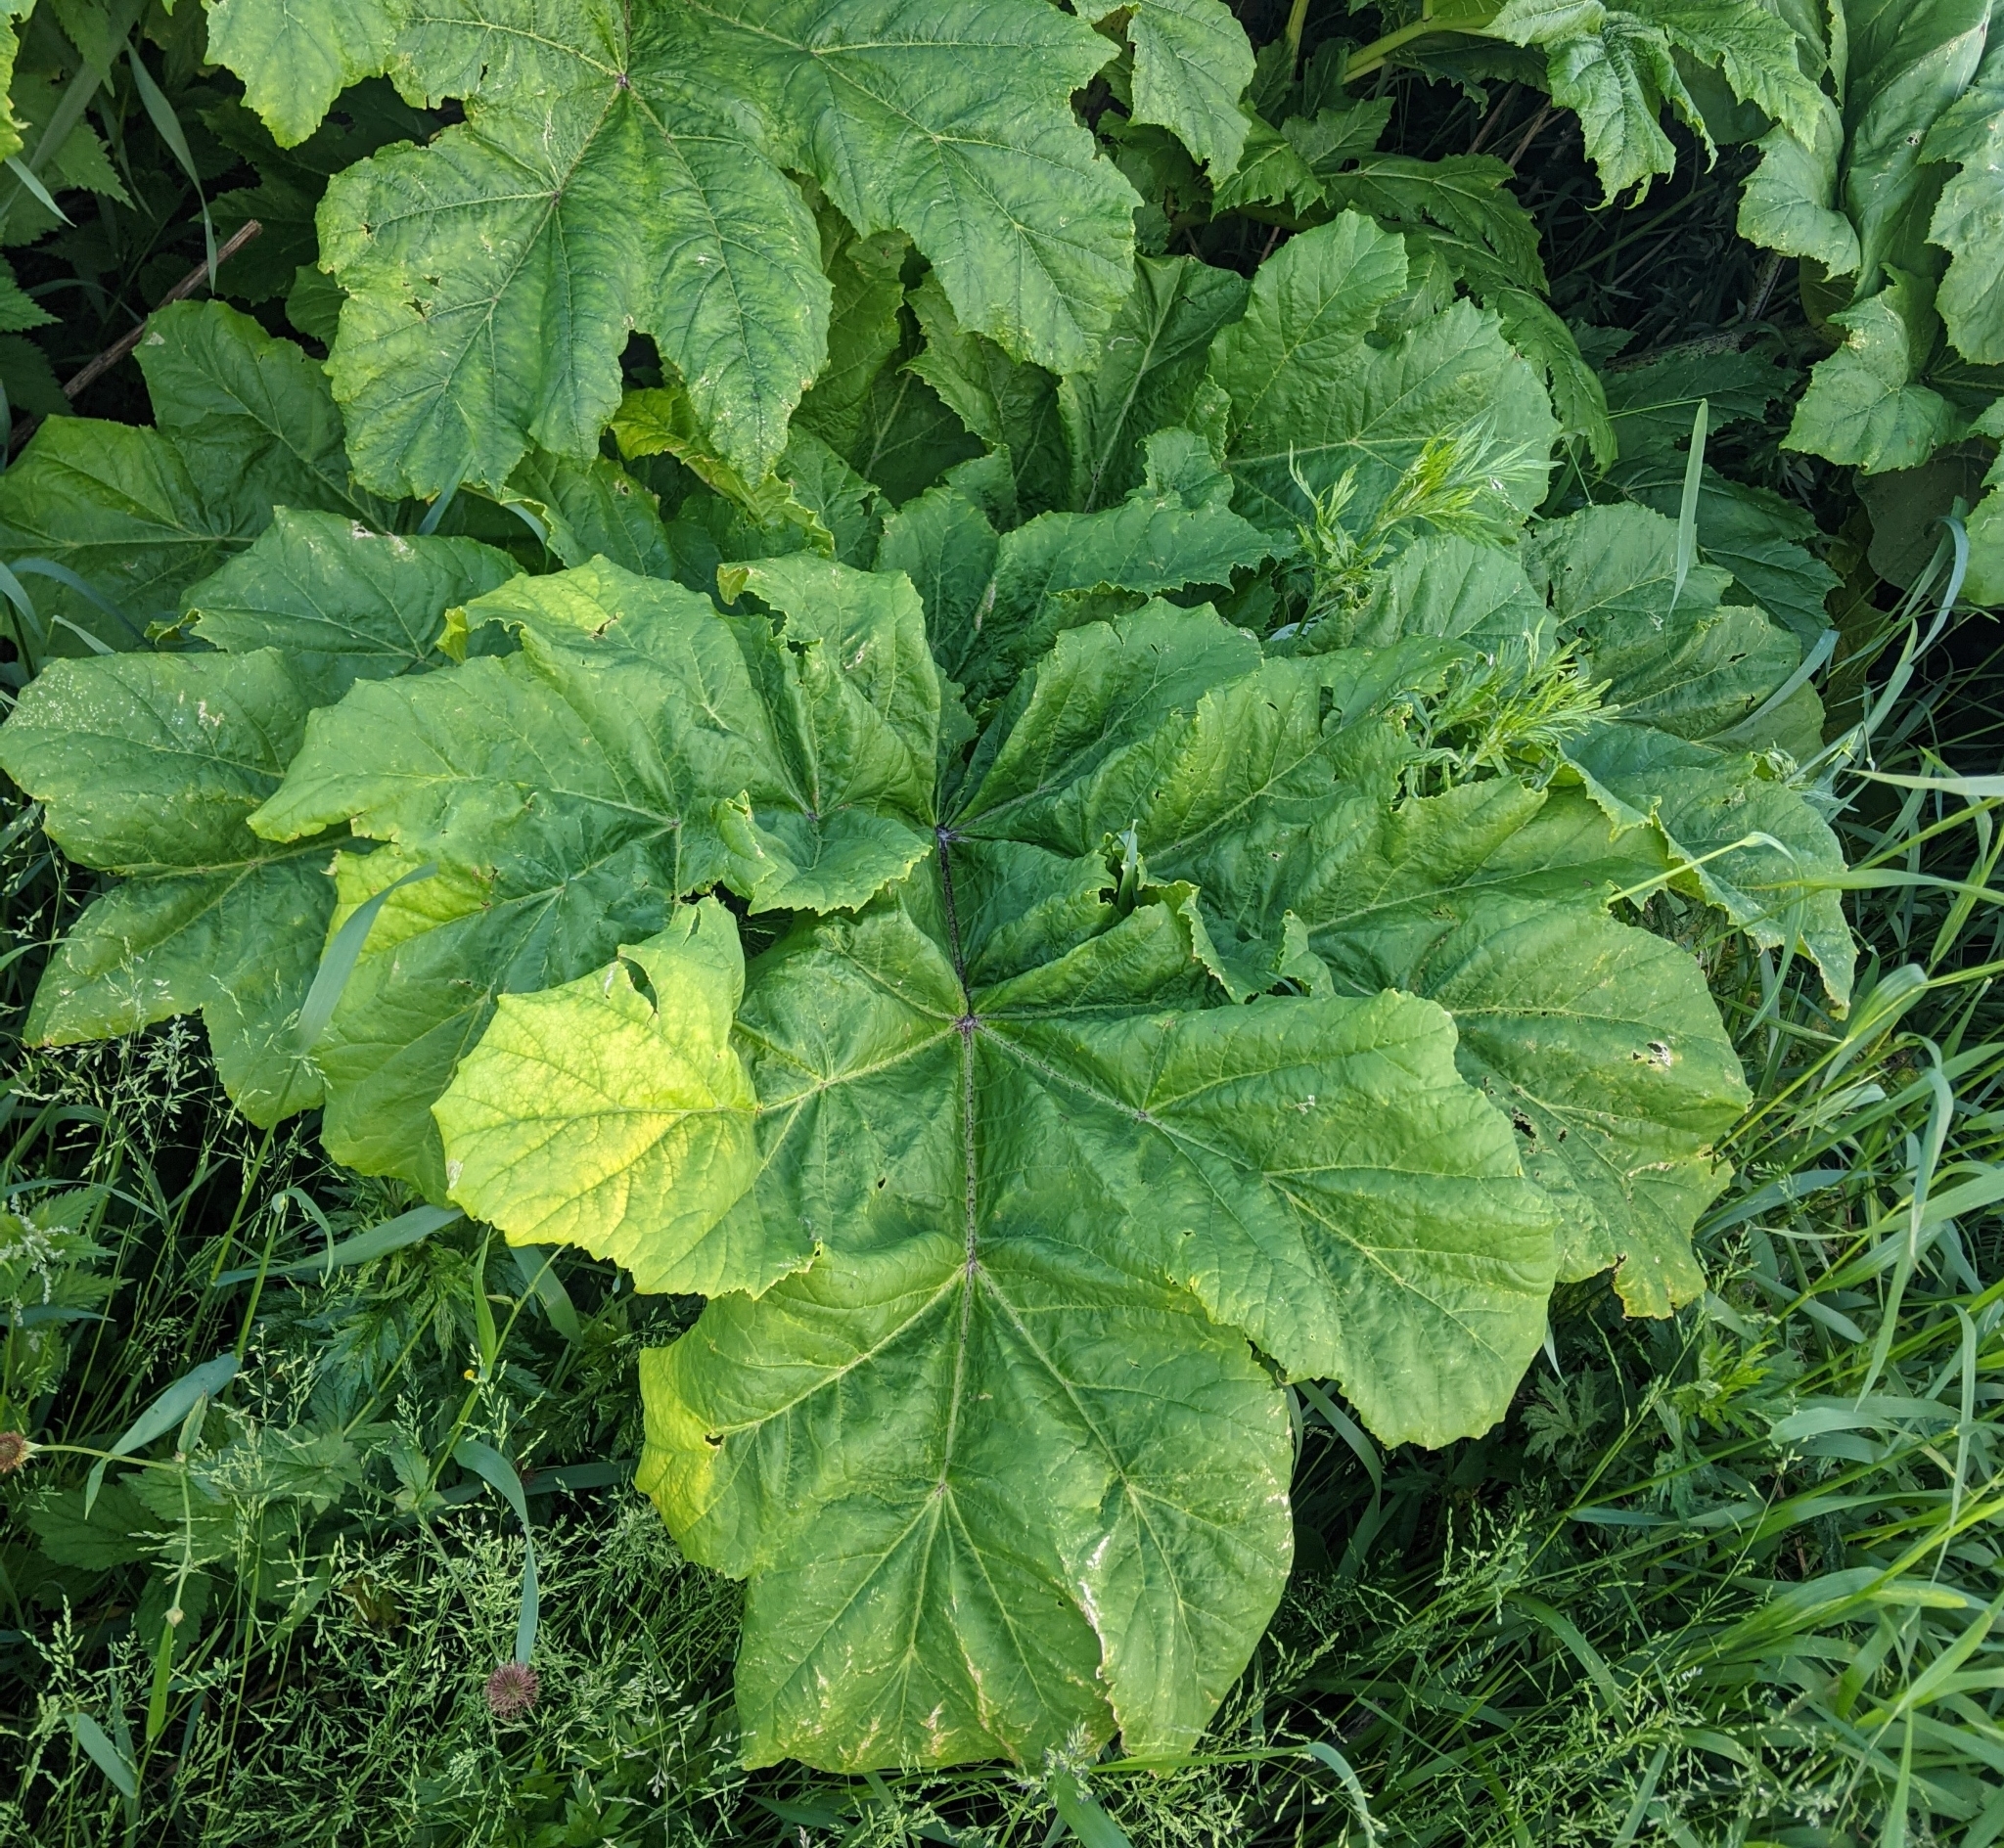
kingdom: Plantae
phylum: Tracheophyta
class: Magnoliopsida
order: Apiales
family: Apiaceae
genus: Heracleum
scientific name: Heracleum sosnowskyi
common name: Sosnowsky's hogweed
